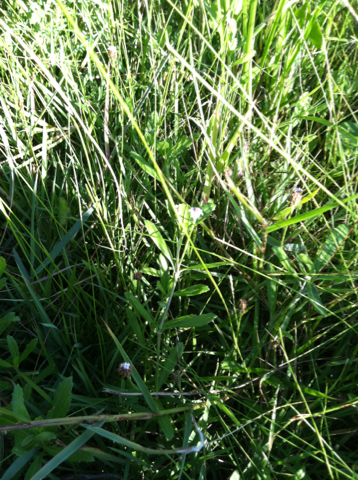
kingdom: Plantae
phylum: Tracheophyta
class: Magnoliopsida
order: Lamiales
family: Verbenaceae
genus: Phyla
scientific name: Phyla nodiflora
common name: Frogfruit
